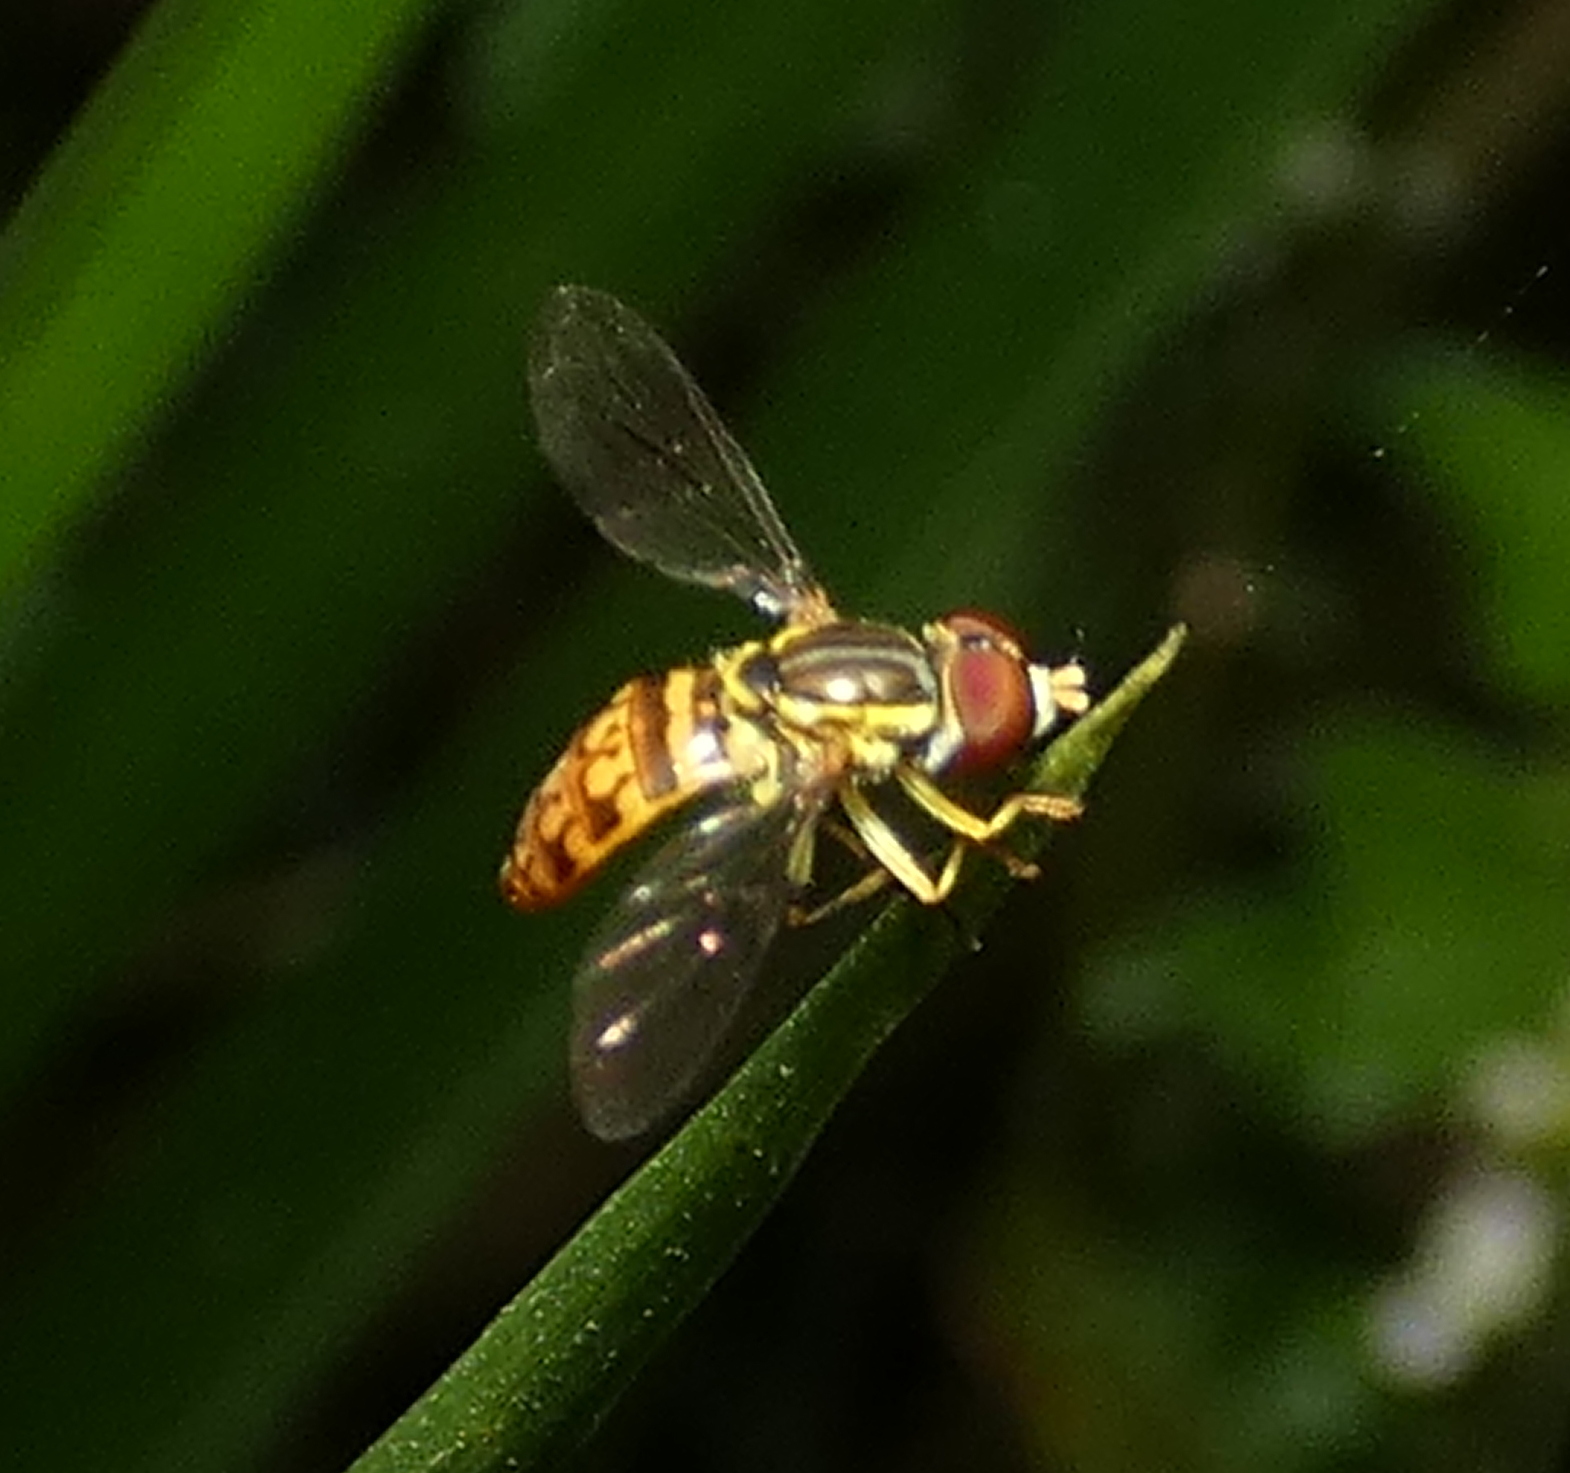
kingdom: Animalia
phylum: Arthropoda
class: Insecta
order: Diptera
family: Syrphidae
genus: Toxomerus
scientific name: Toxomerus pictus
